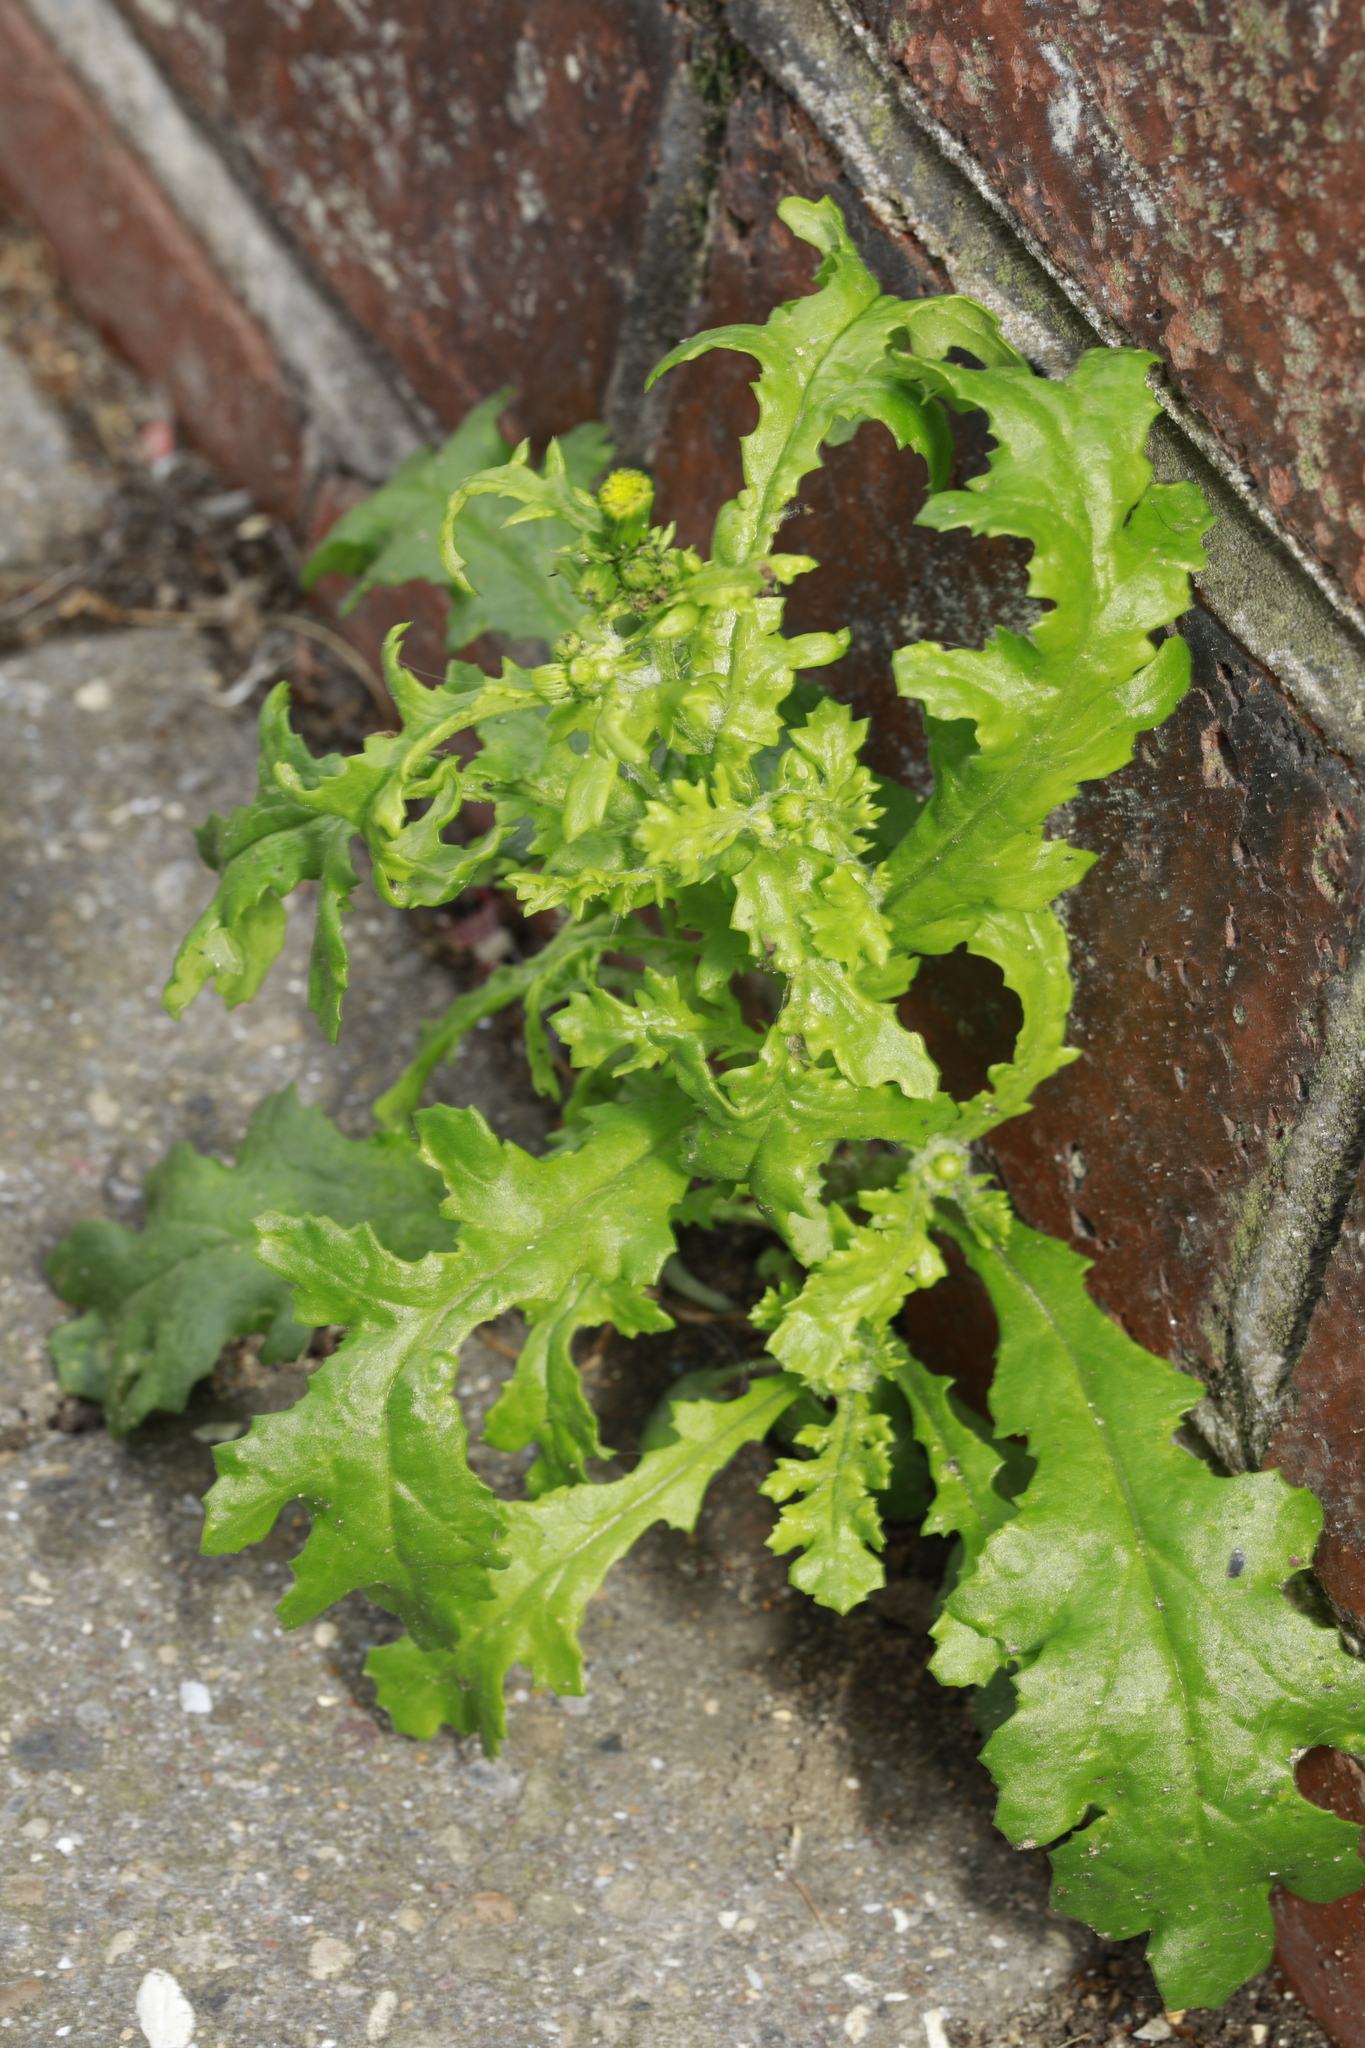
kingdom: Plantae
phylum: Tracheophyta
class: Magnoliopsida
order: Asterales
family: Asteraceae
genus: Senecio
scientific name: Senecio vulgaris
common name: Old-man-in-the-spring
